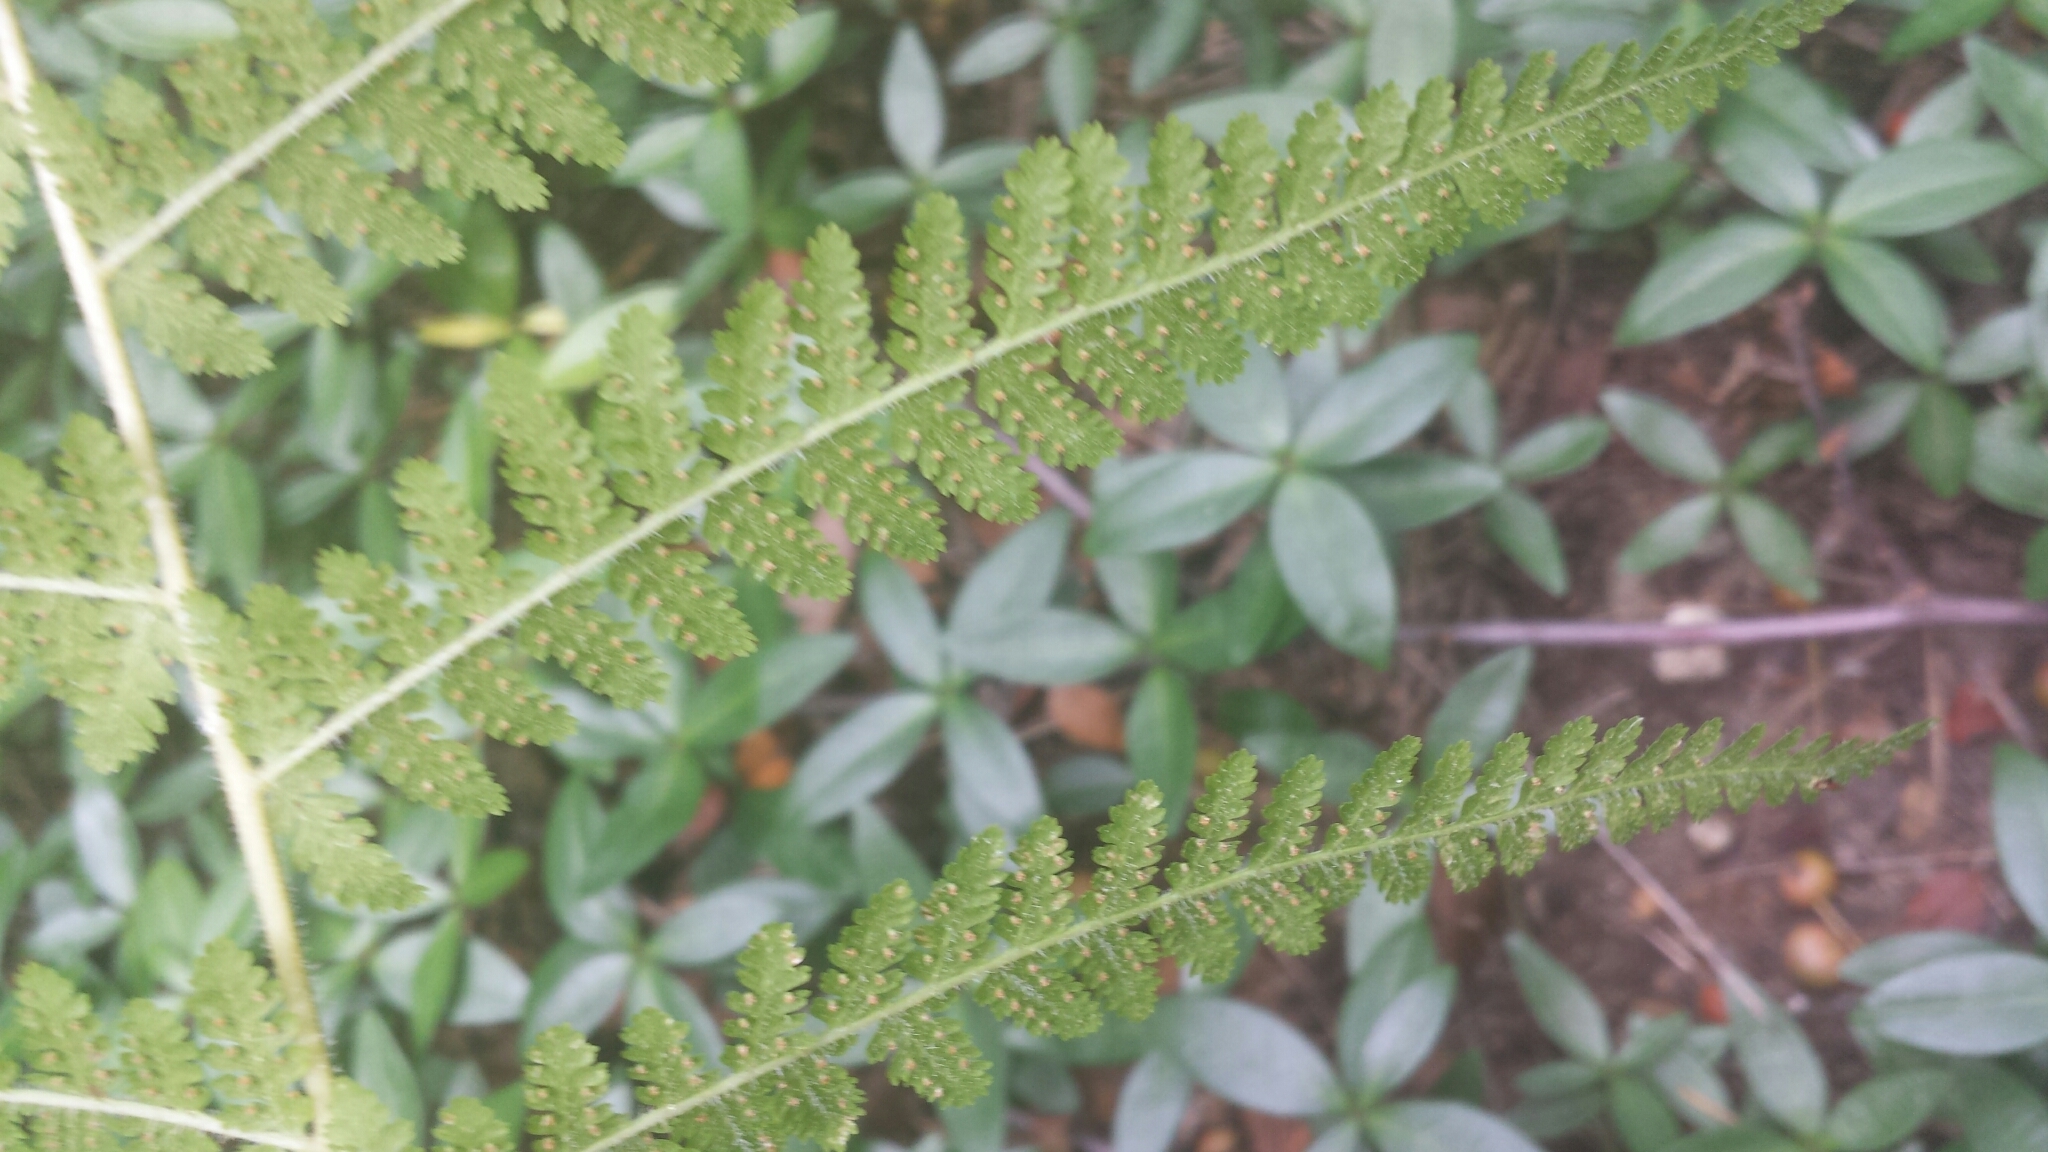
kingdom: Plantae
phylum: Tracheophyta
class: Polypodiopsida
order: Polypodiales
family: Dennstaedtiaceae
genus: Sitobolium
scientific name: Sitobolium punctilobum
